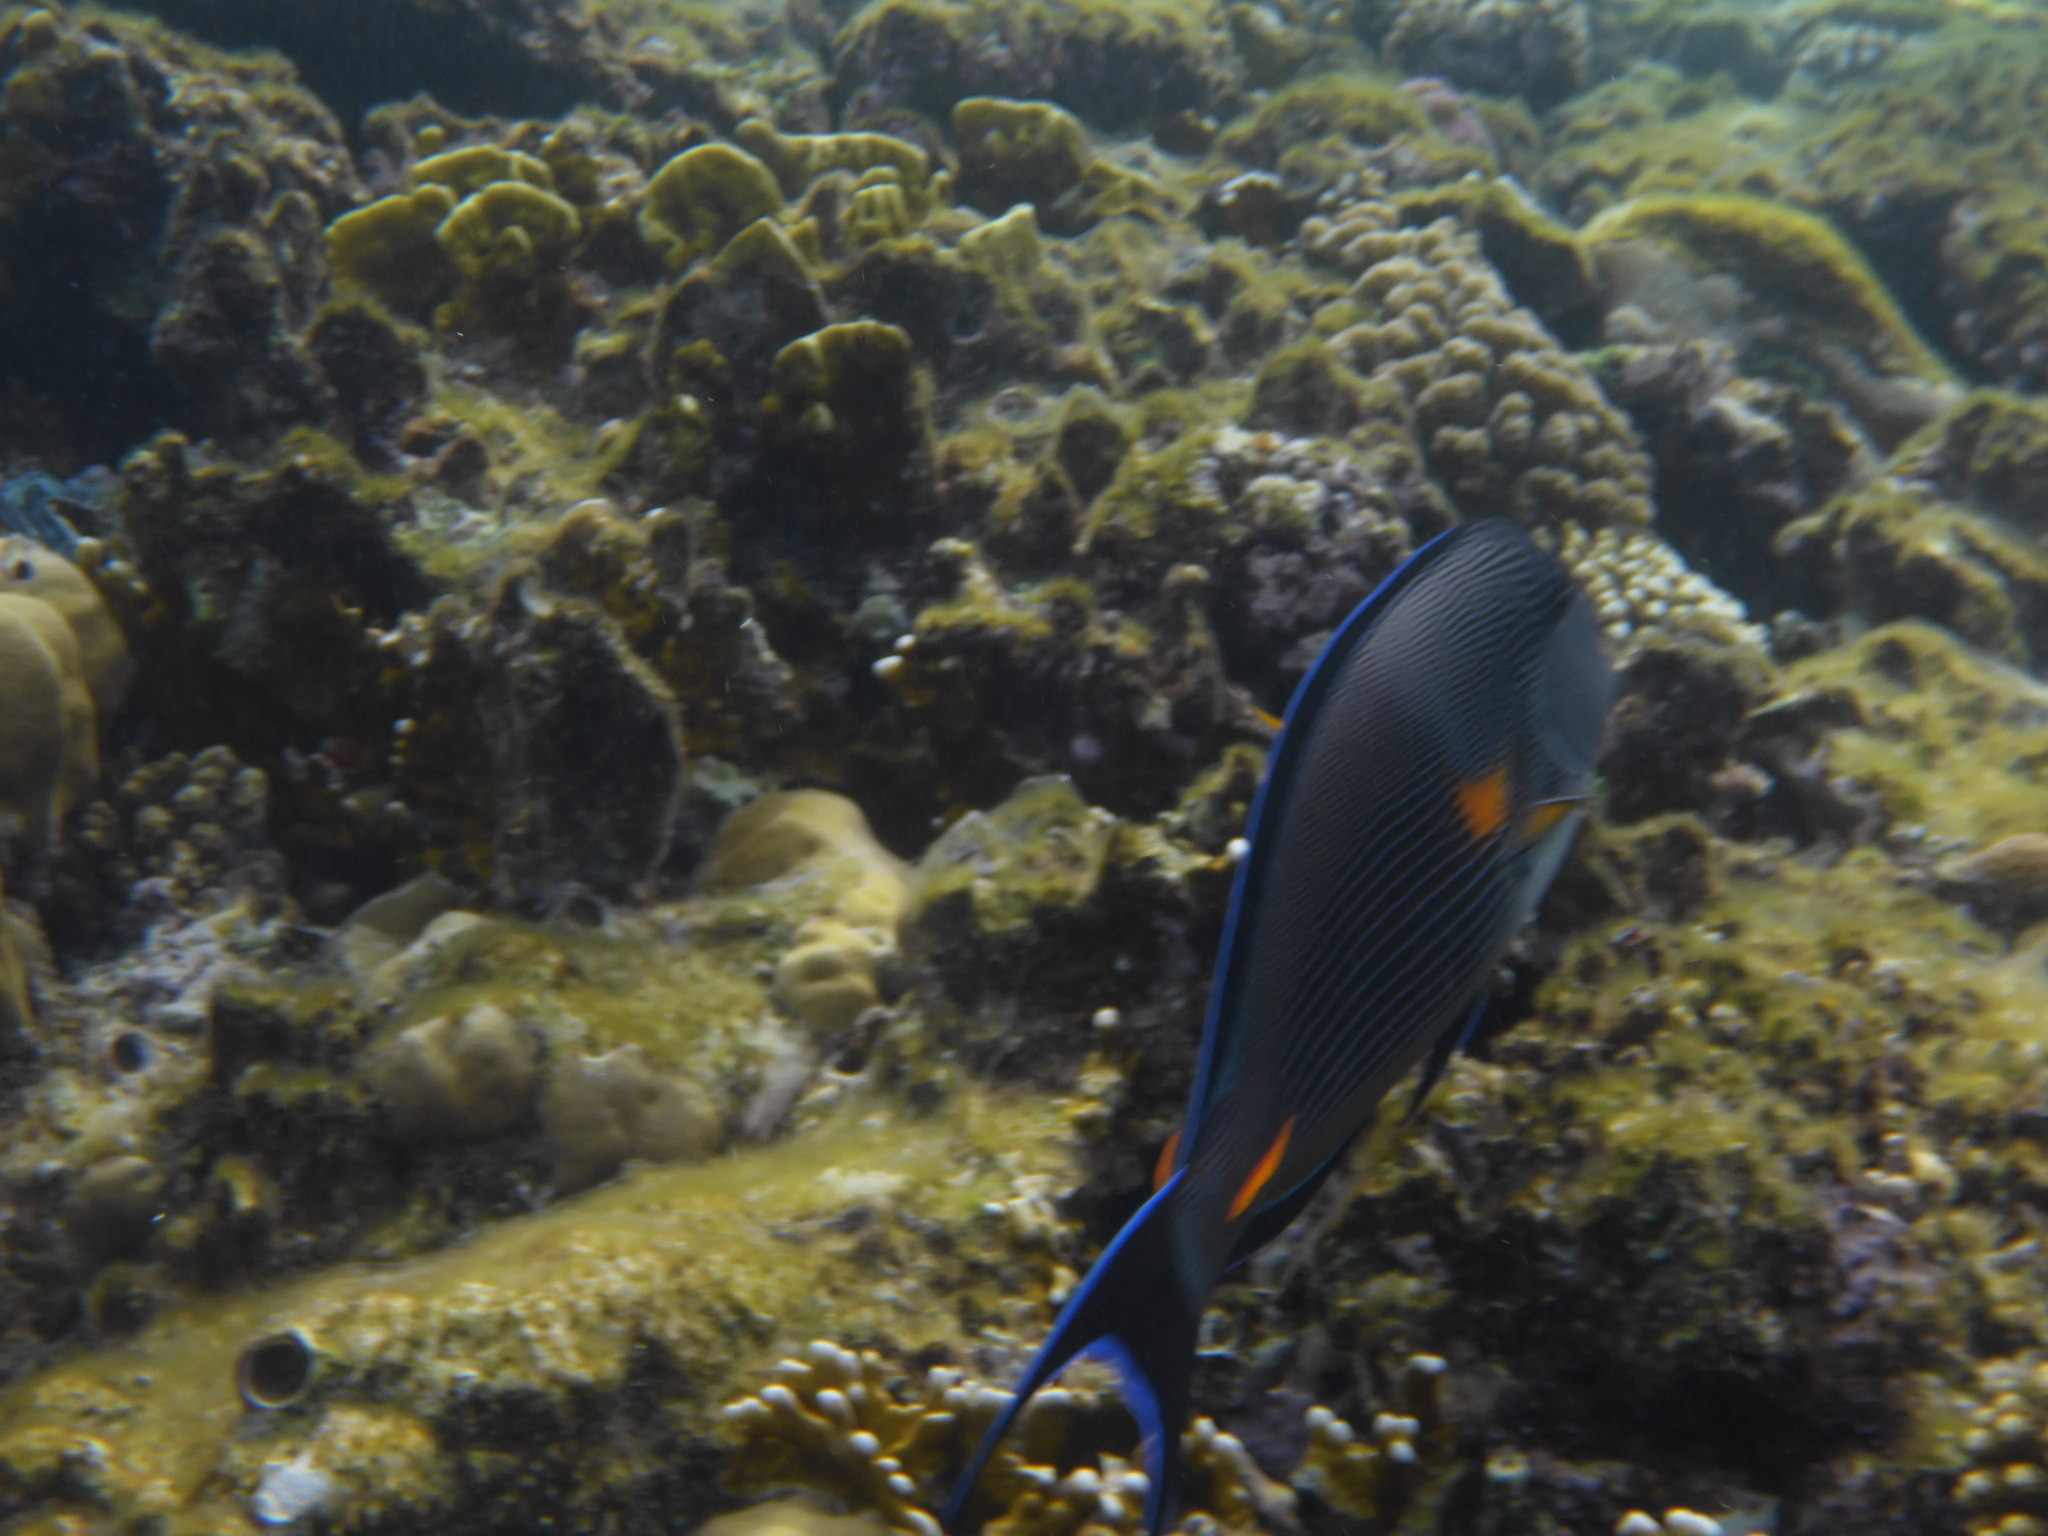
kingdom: Animalia
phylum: Chordata
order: Perciformes
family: Acanthuridae
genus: Acanthurus
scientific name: Acanthurus sohal
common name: Red sea surgeonfish
